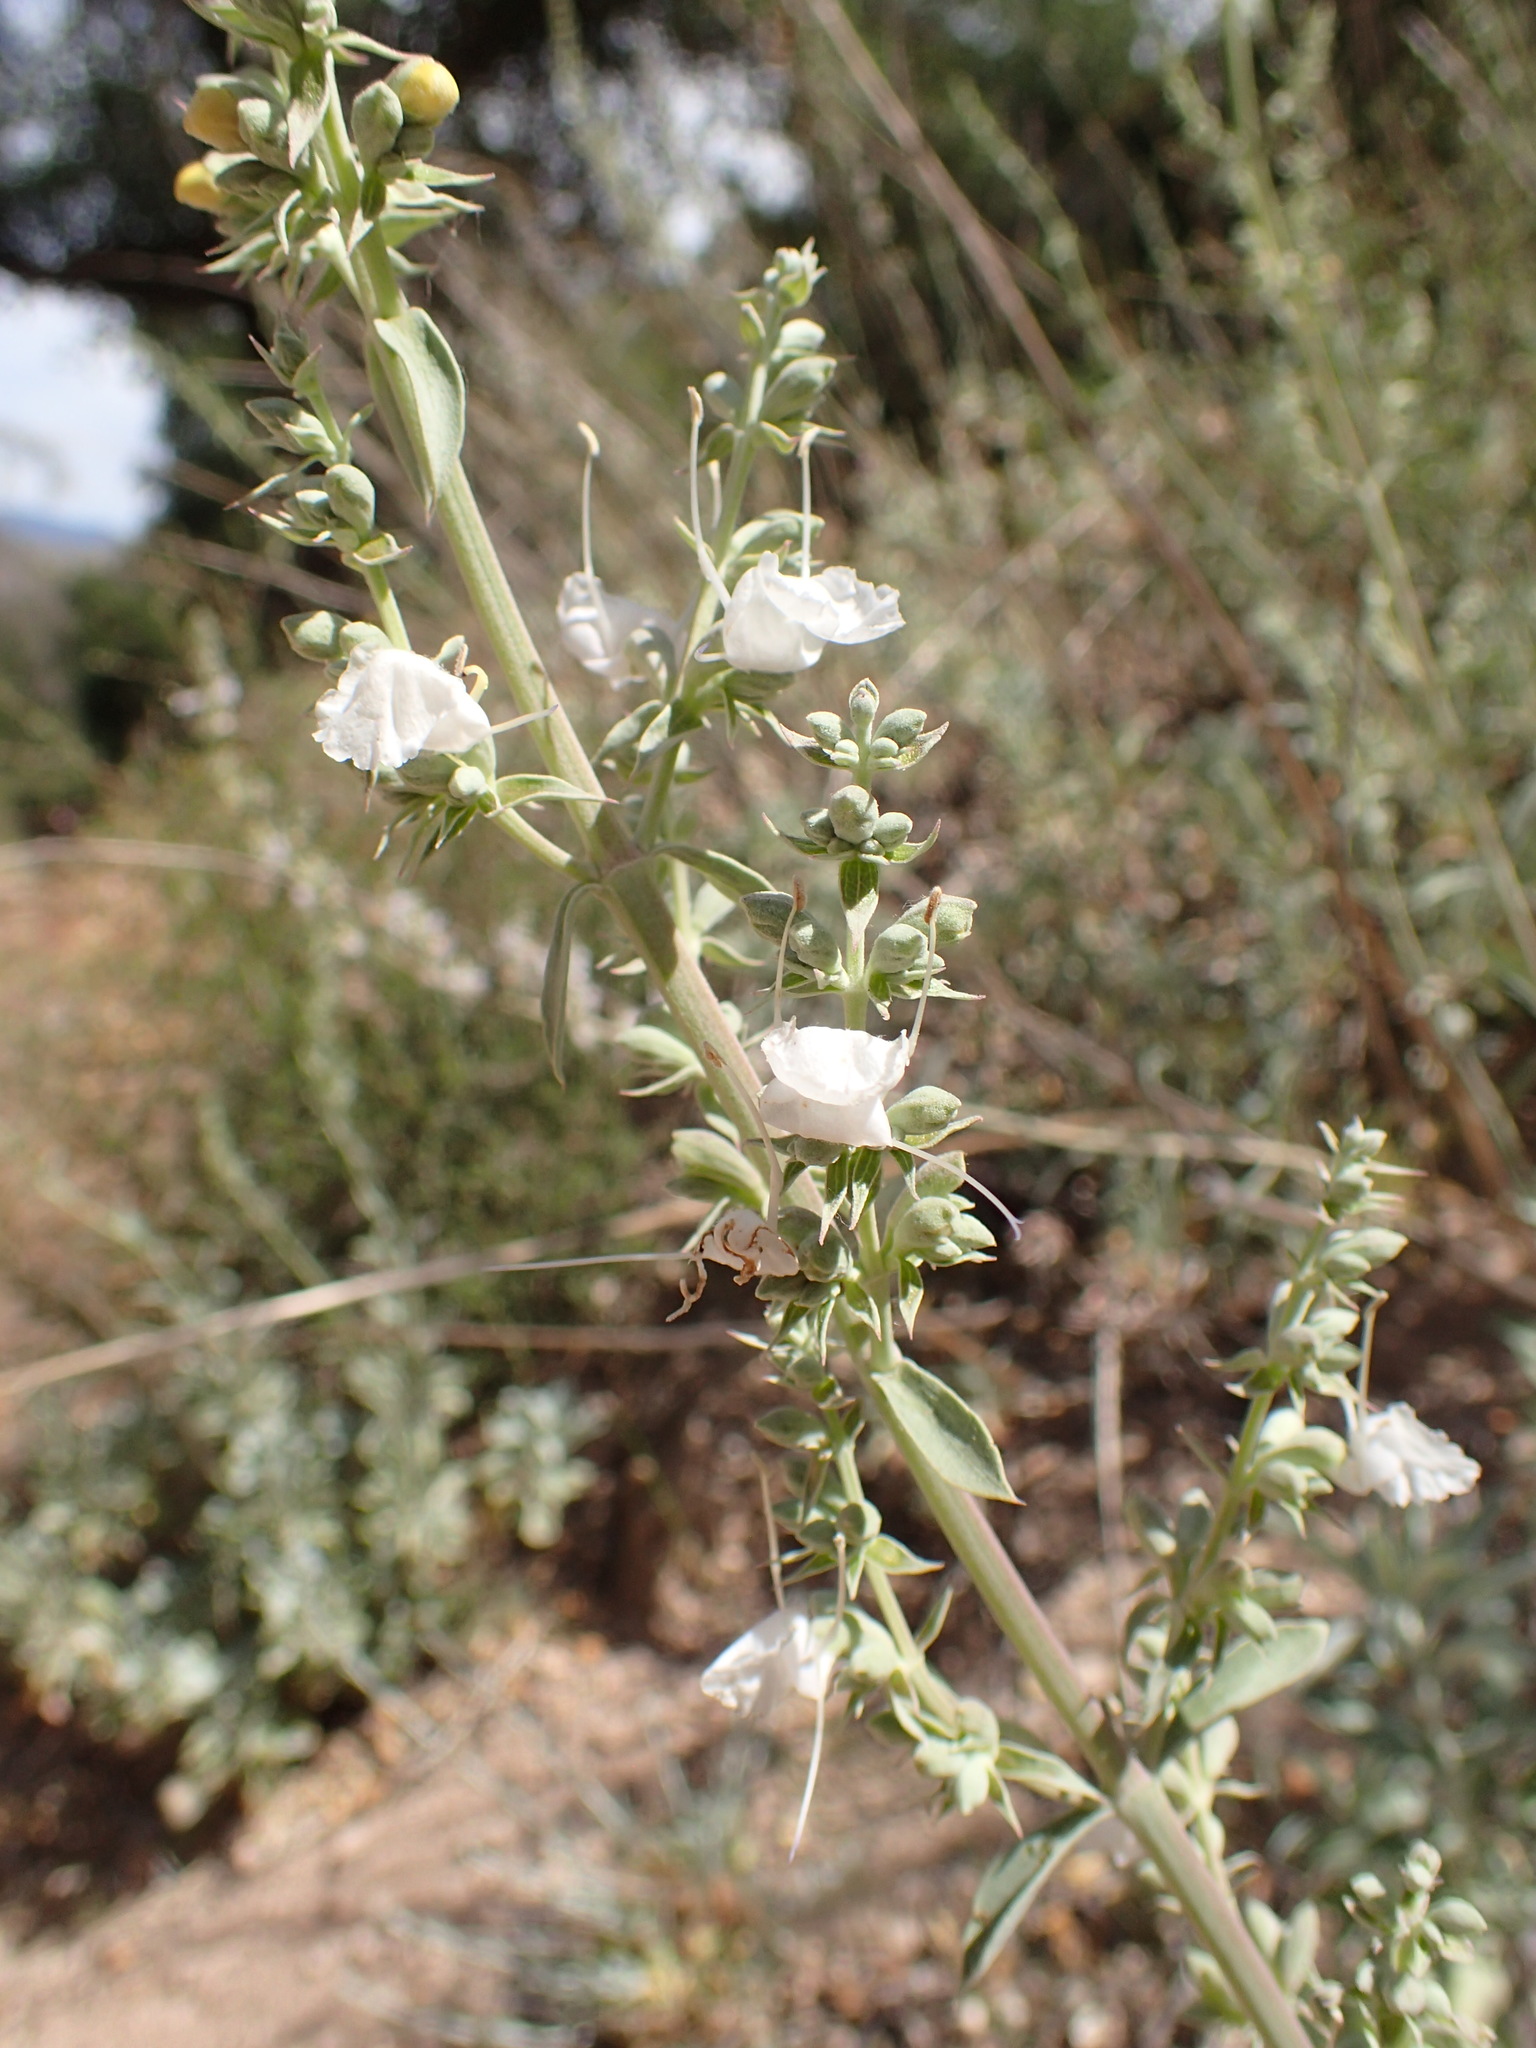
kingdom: Plantae
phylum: Tracheophyta
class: Magnoliopsida
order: Lamiales
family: Lamiaceae
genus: Salvia
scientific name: Salvia apiana
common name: White sage
